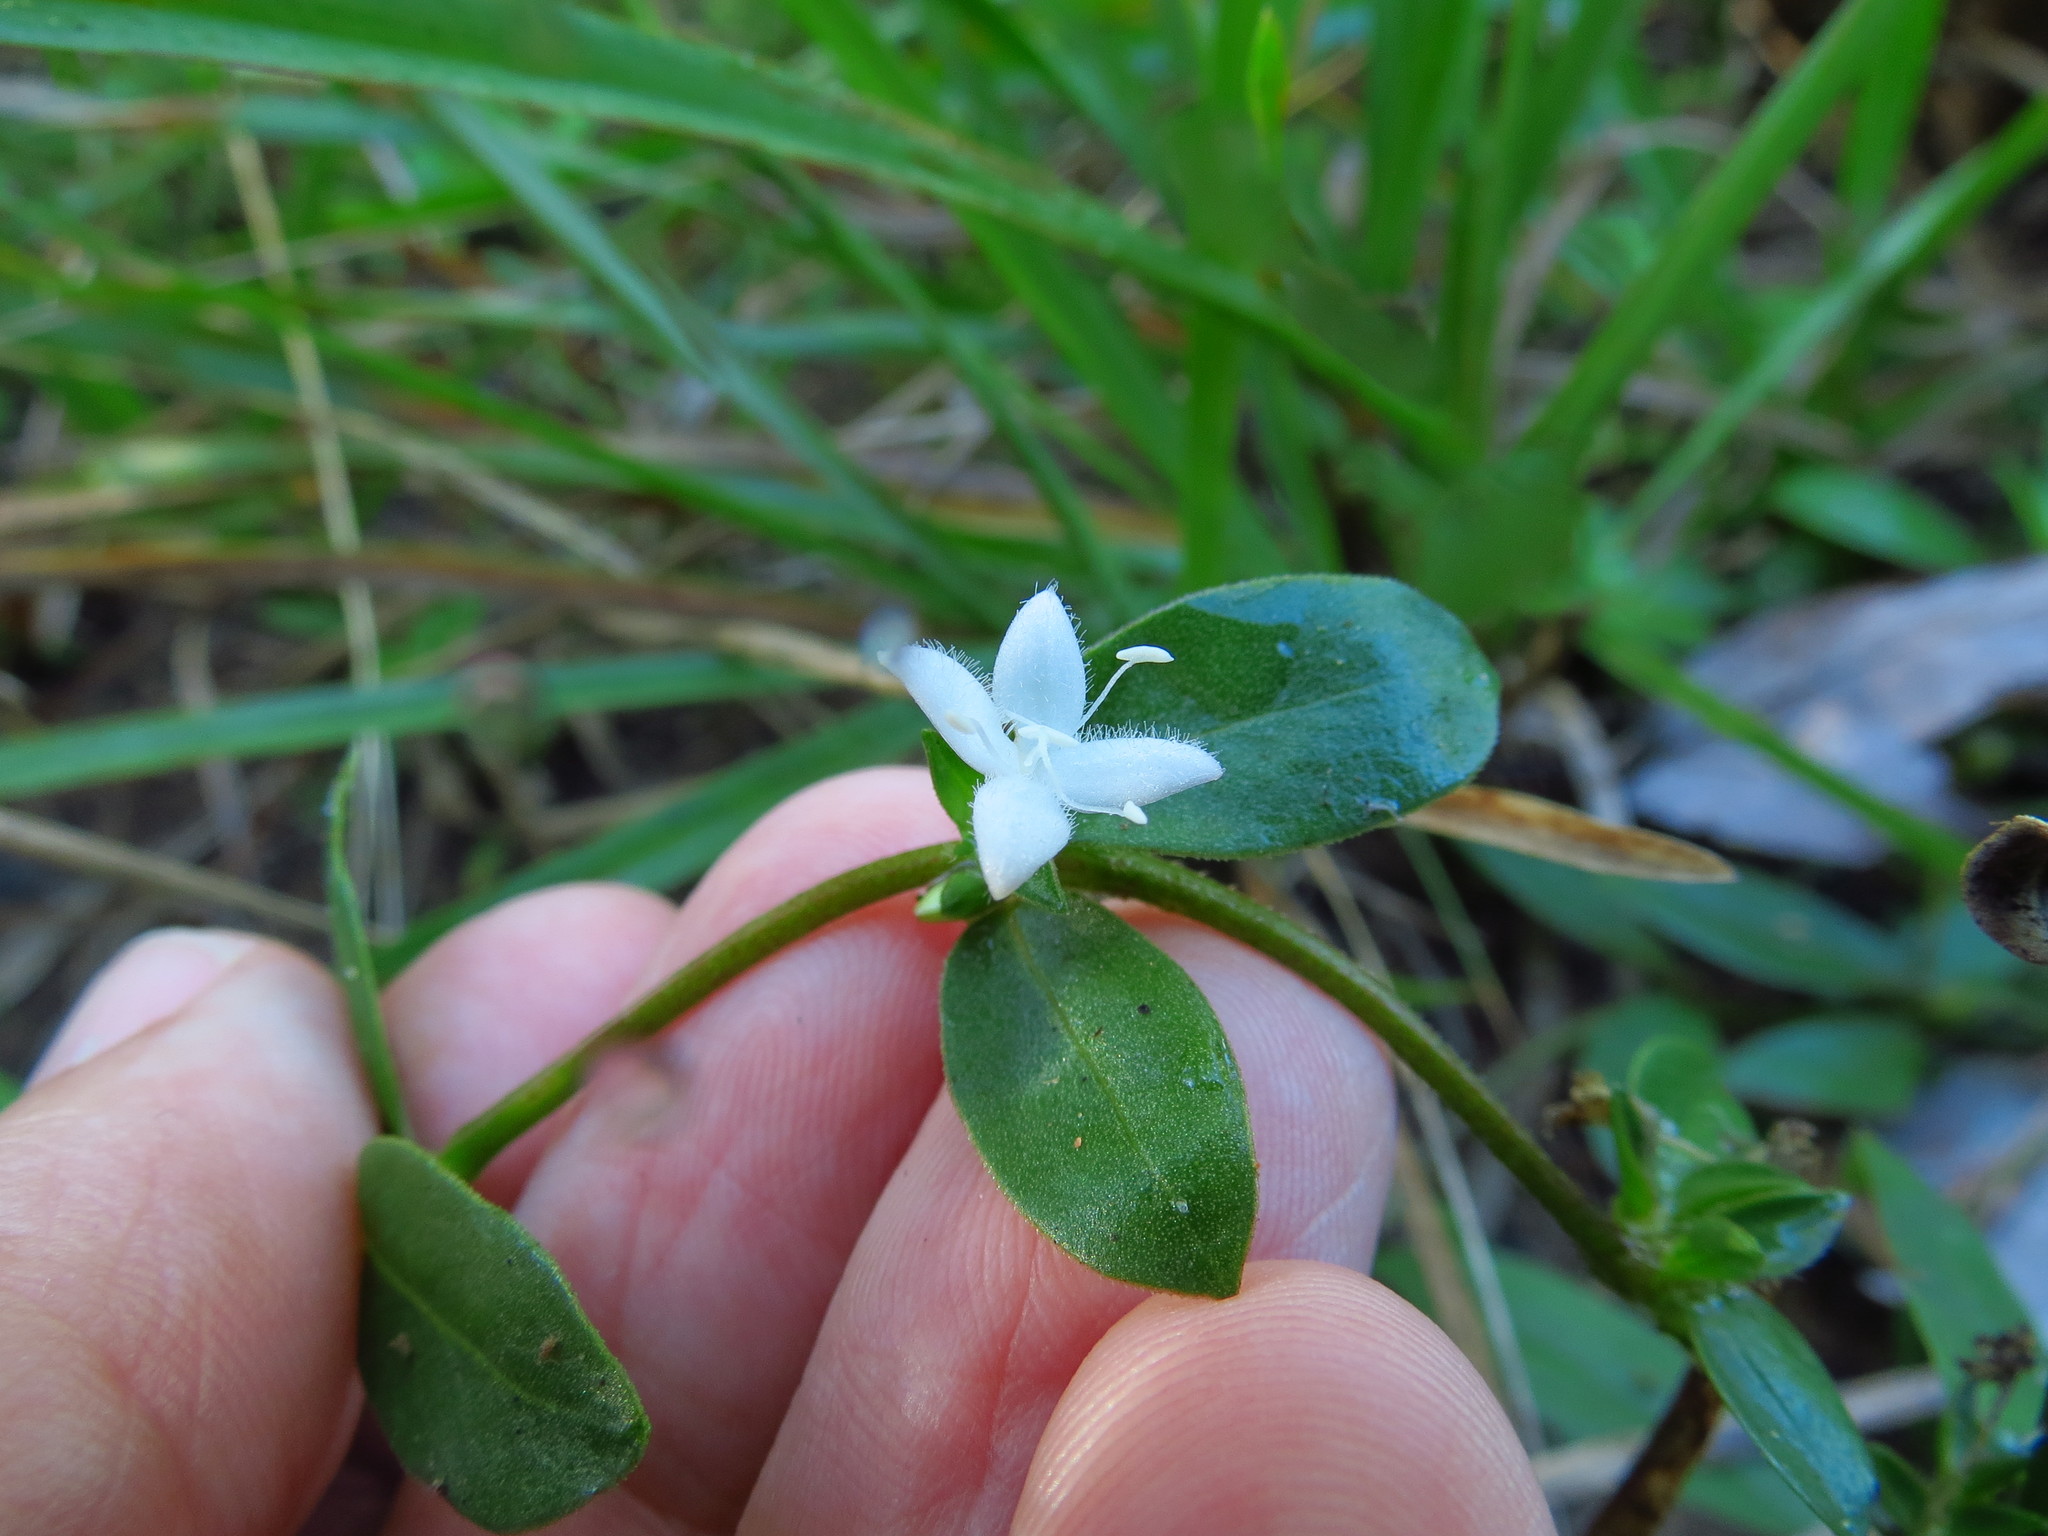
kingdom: Plantae
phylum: Tracheophyta
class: Magnoliopsida
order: Gentianales
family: Rubiaceae
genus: Mitchella
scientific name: Mitchella repens
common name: Partridge-berry
